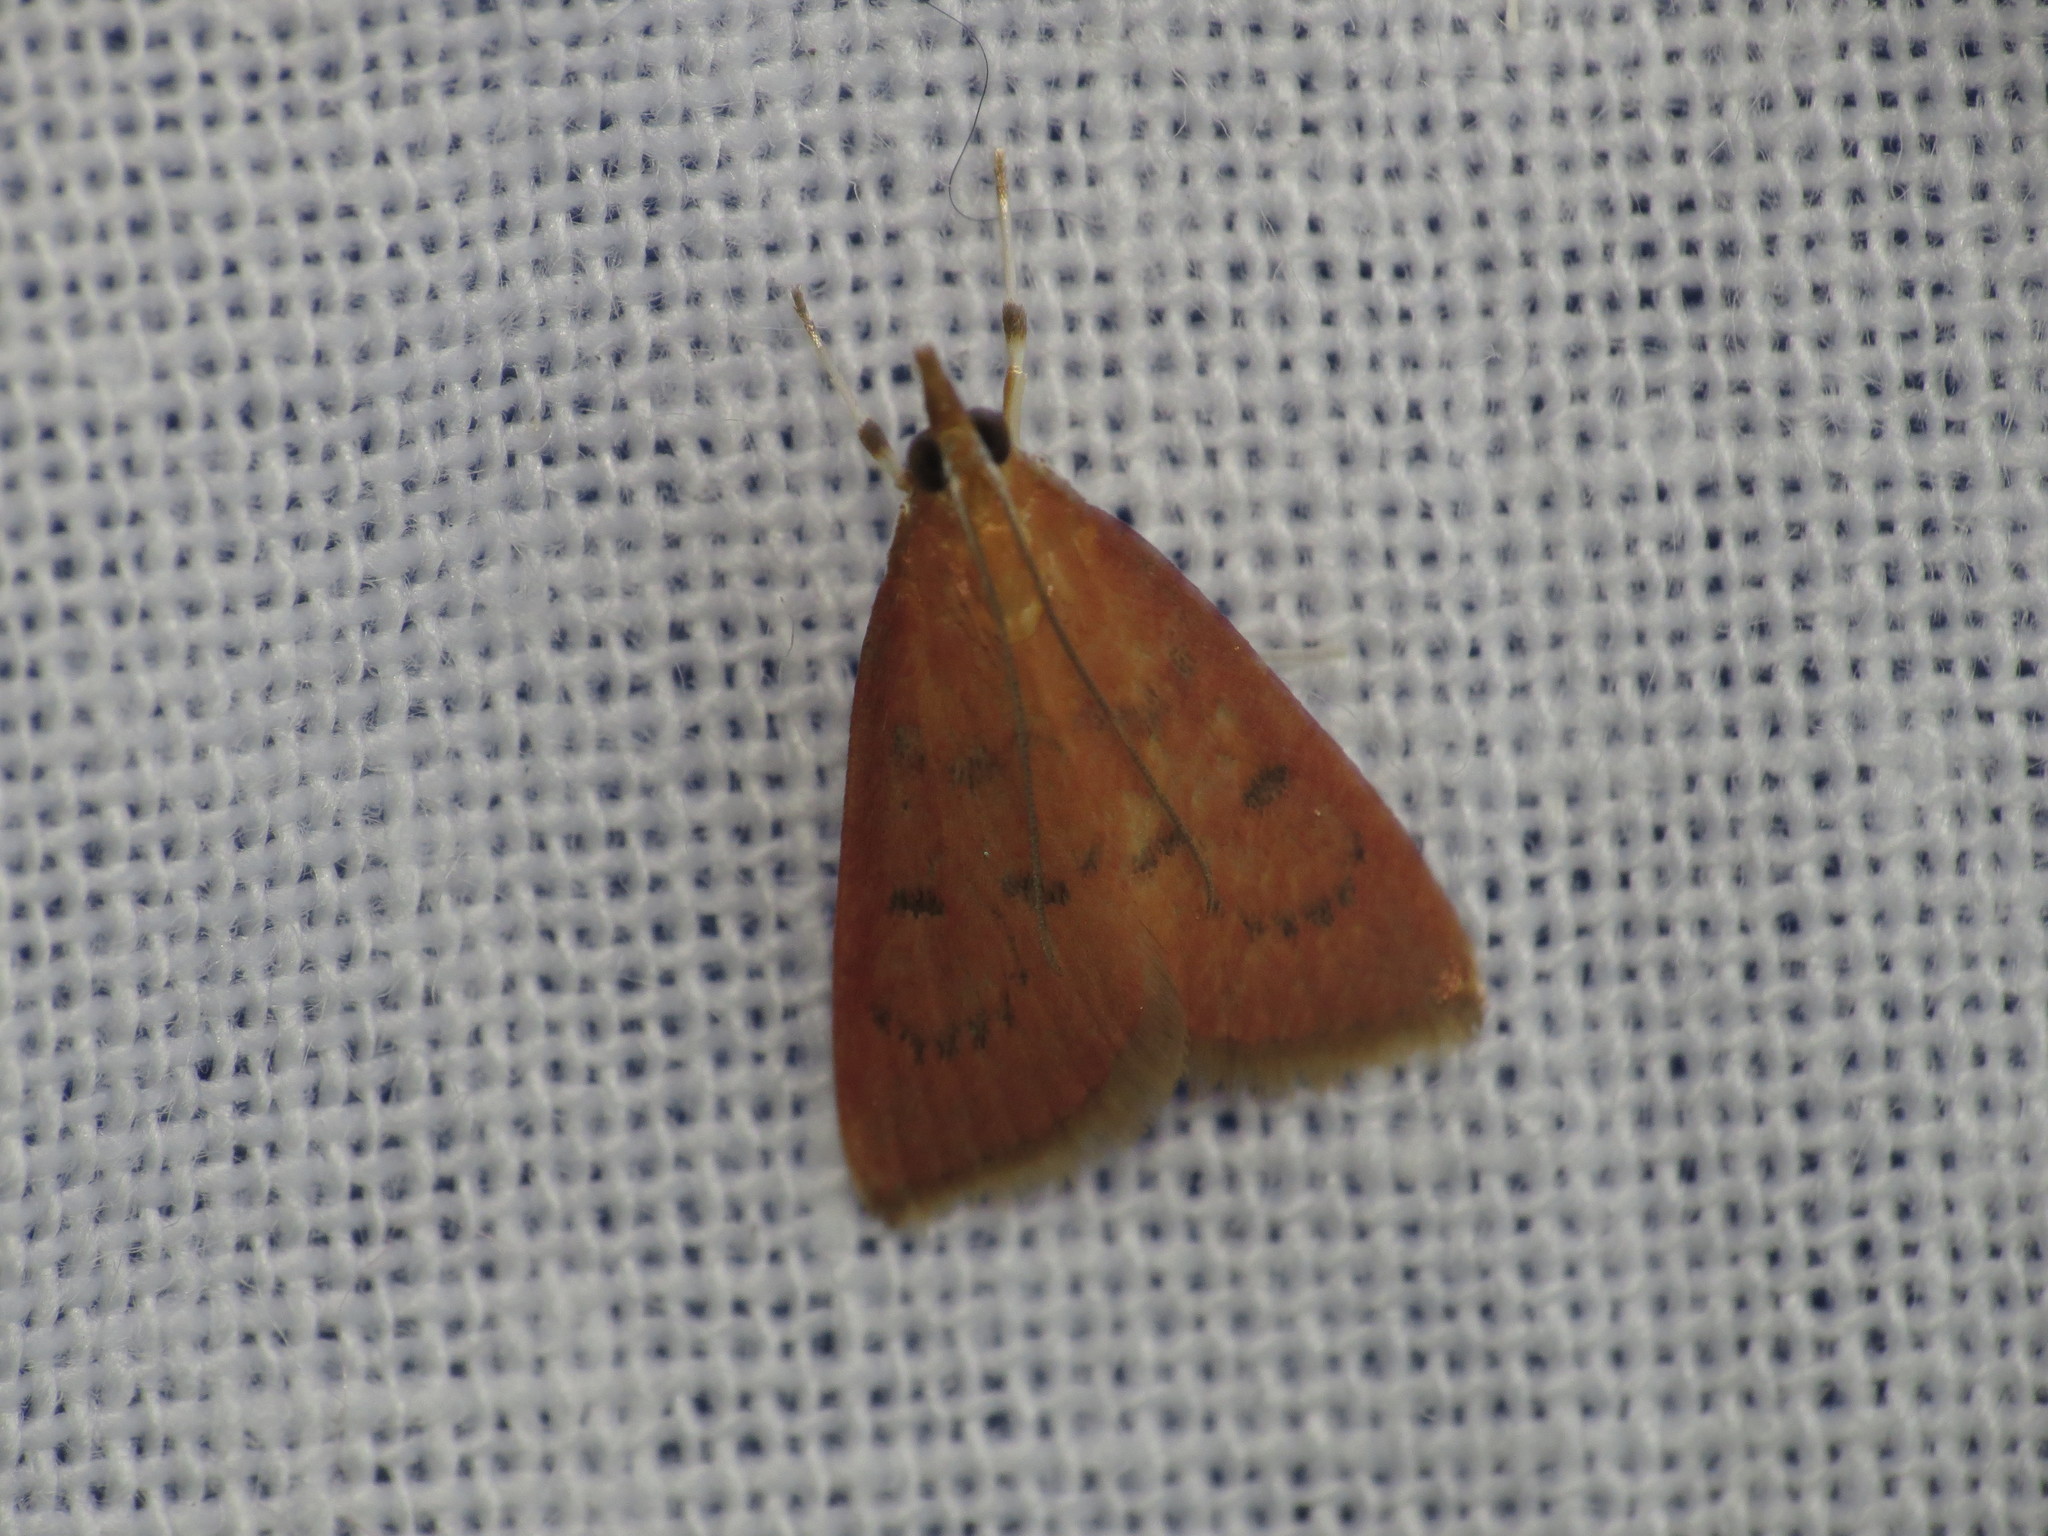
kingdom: Animalia
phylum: Arthropoda
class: Insecta
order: Lepidoptera
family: Crambidae
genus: Oenobotys
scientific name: Oenobotys vinotinctalis
